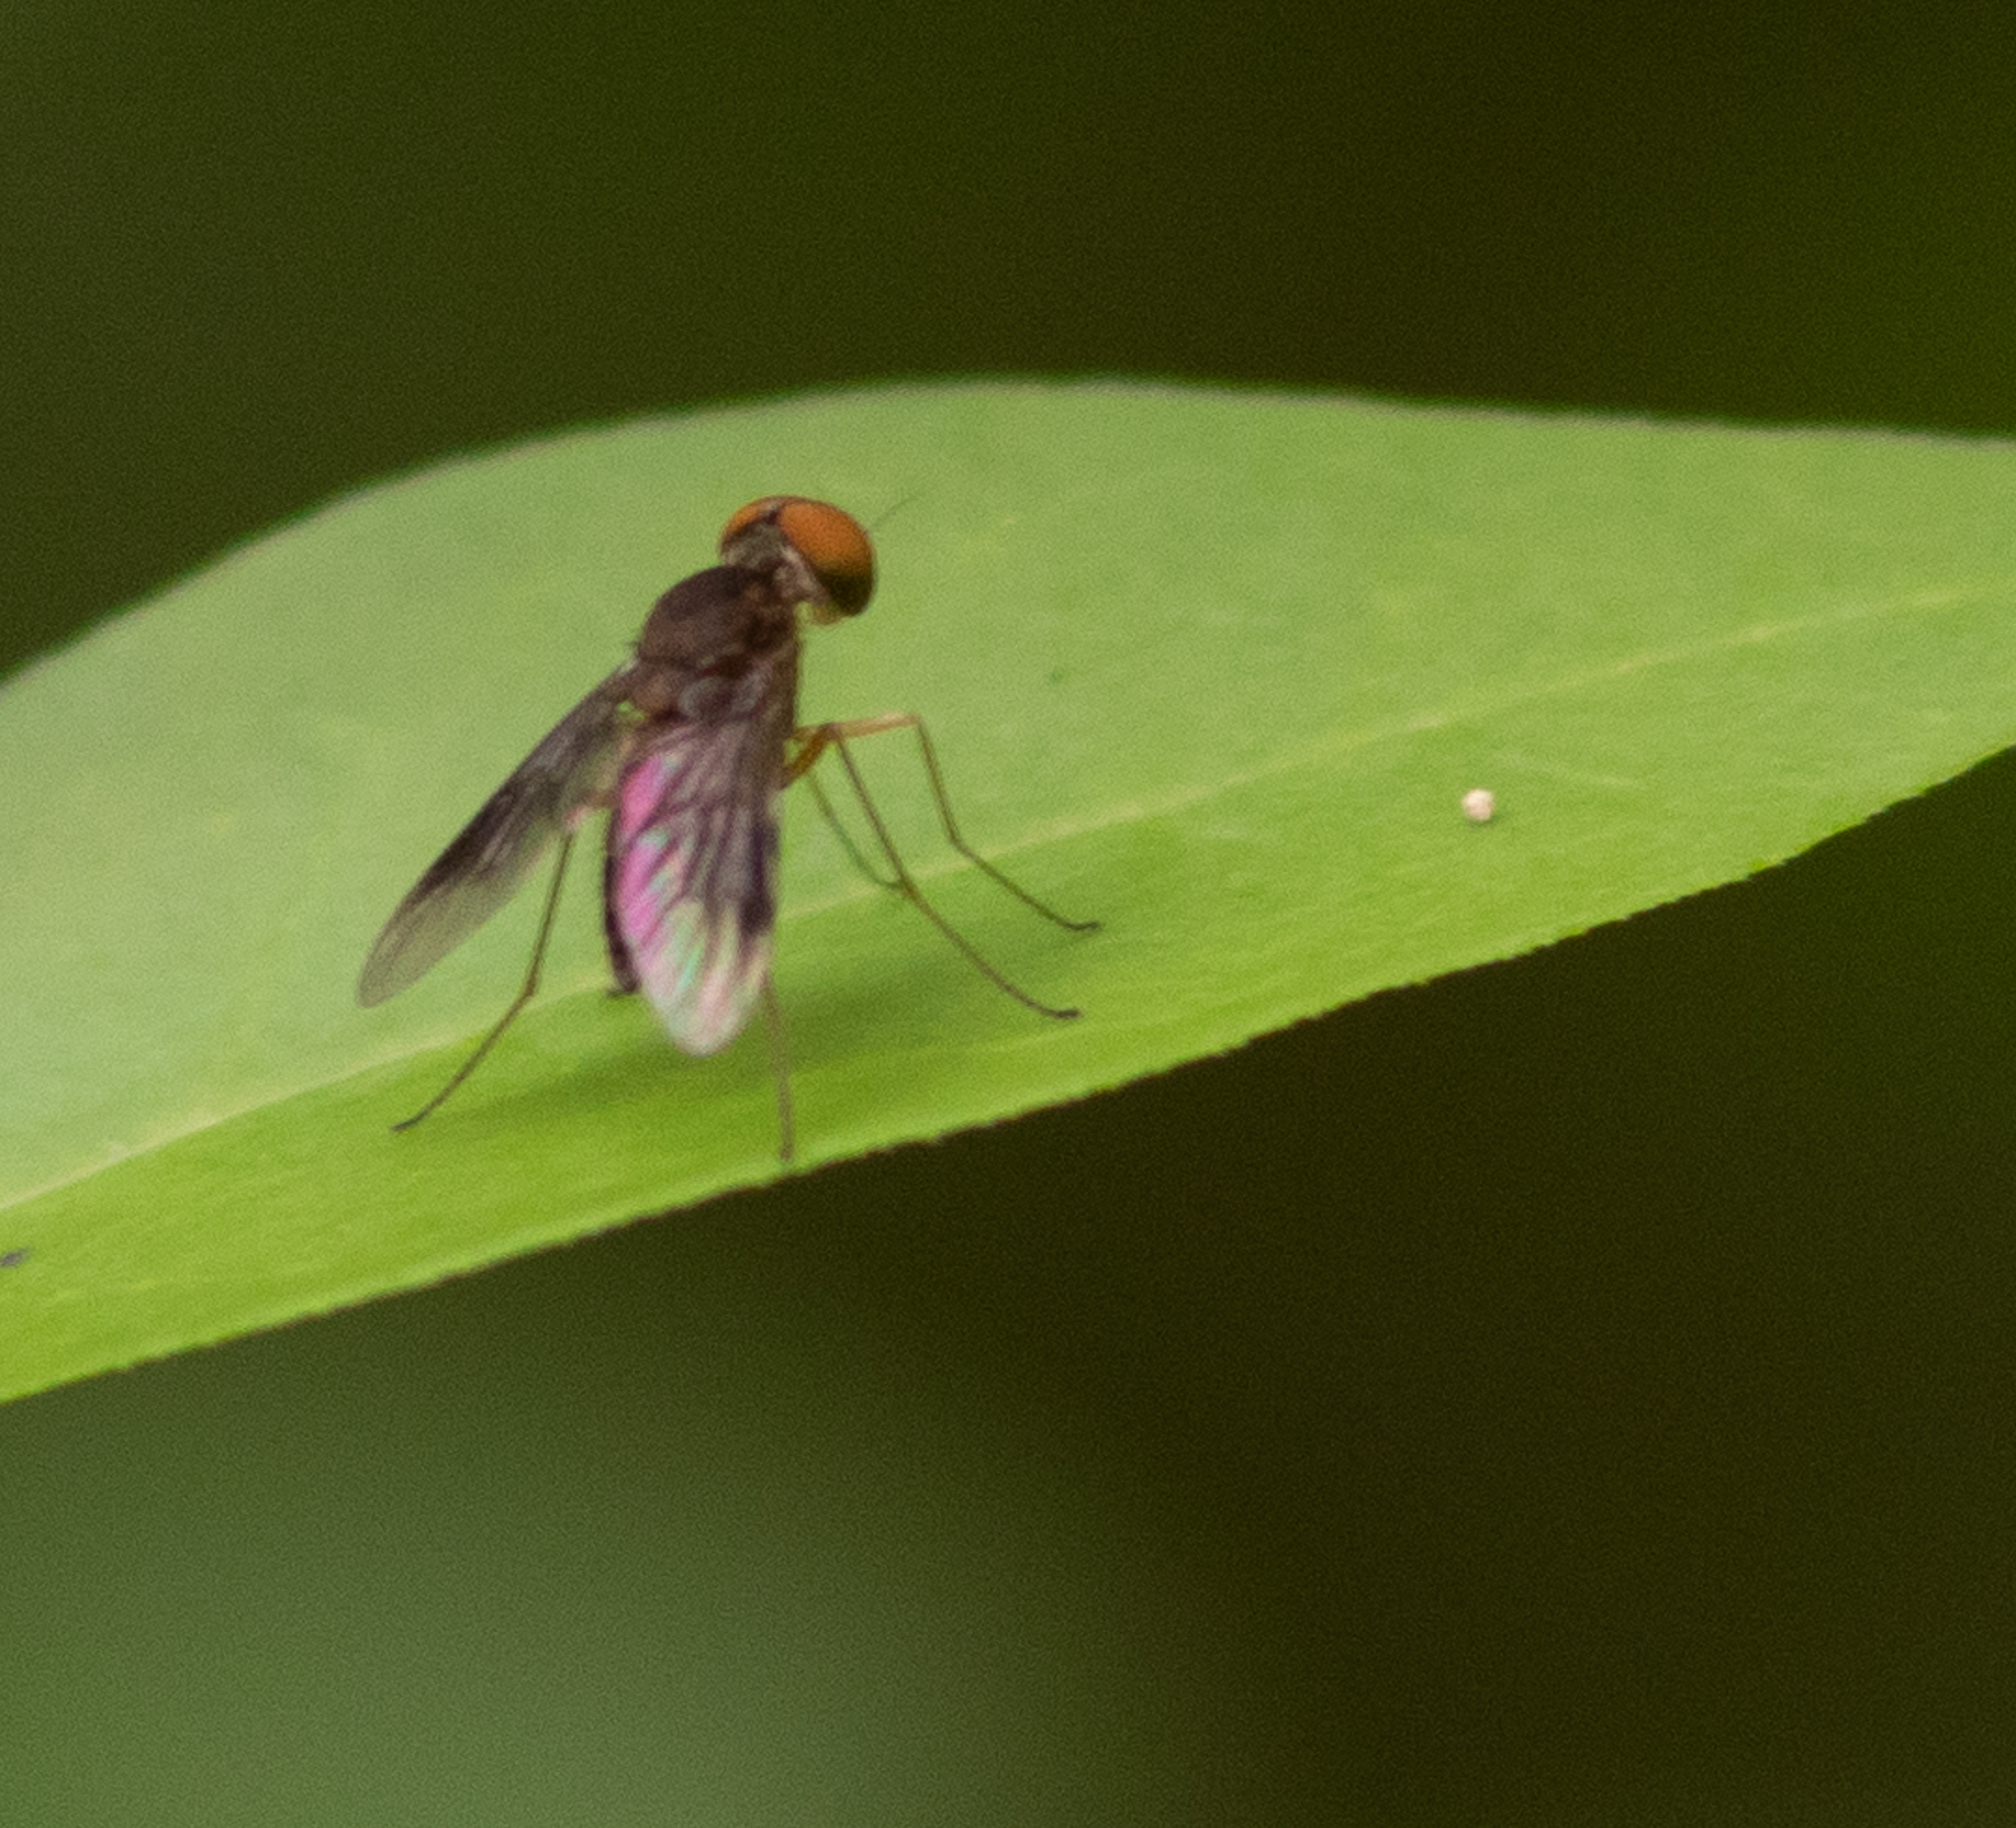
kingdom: Animalia
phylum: Arthropoda
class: Insecta
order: Diptera
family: Rhagionidae
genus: Chrysopilus
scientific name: Chrysopilus quadratus
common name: Quadrate snipe fly
